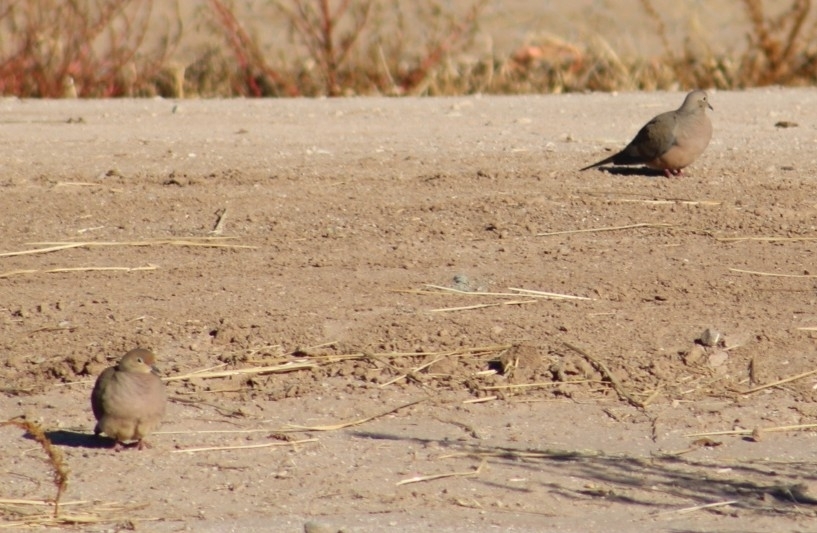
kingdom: Animalia
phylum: Chordata
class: Aves
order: Columbiformes
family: Columbidae
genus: Zenaida
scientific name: Zenaida macroura
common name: Mourning dove
